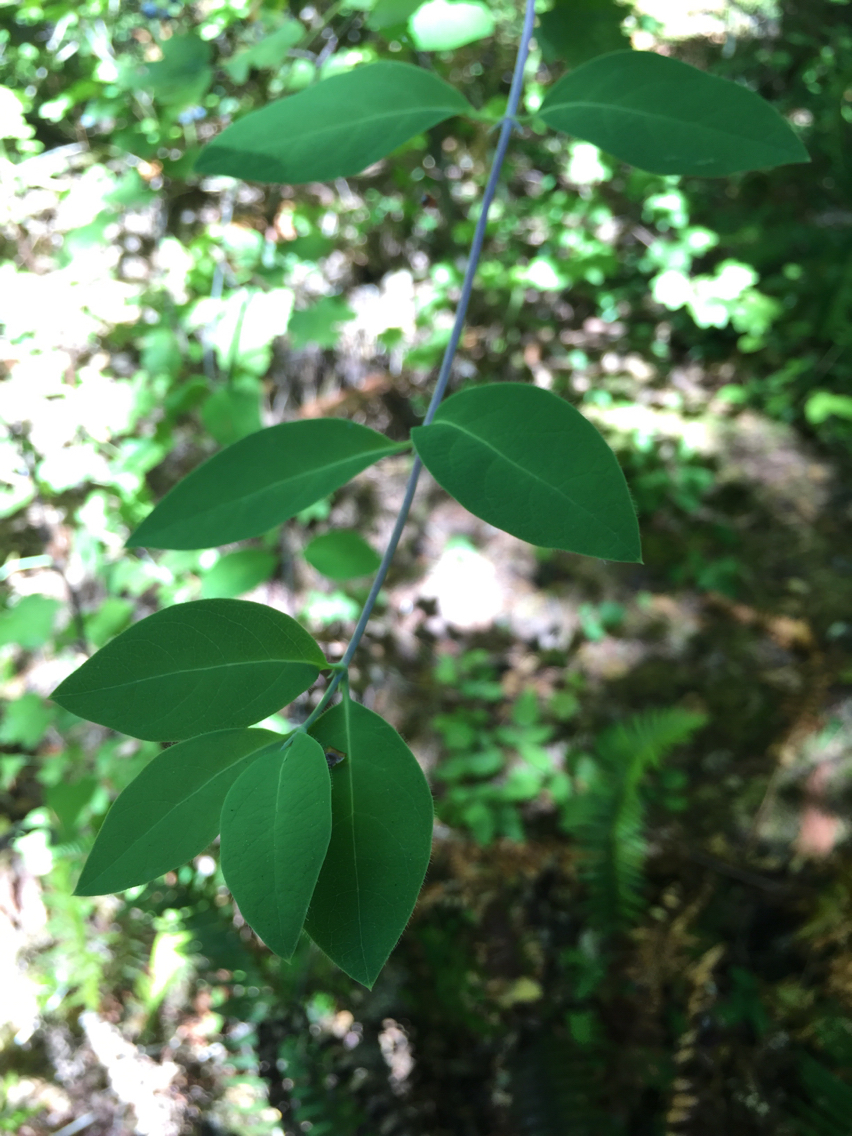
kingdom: Plantae
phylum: Tracheophyta
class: Magnoliopsida
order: Dipsacales
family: Caprifoliaceae
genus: Lonicera
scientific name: Lonicera ciliosa
